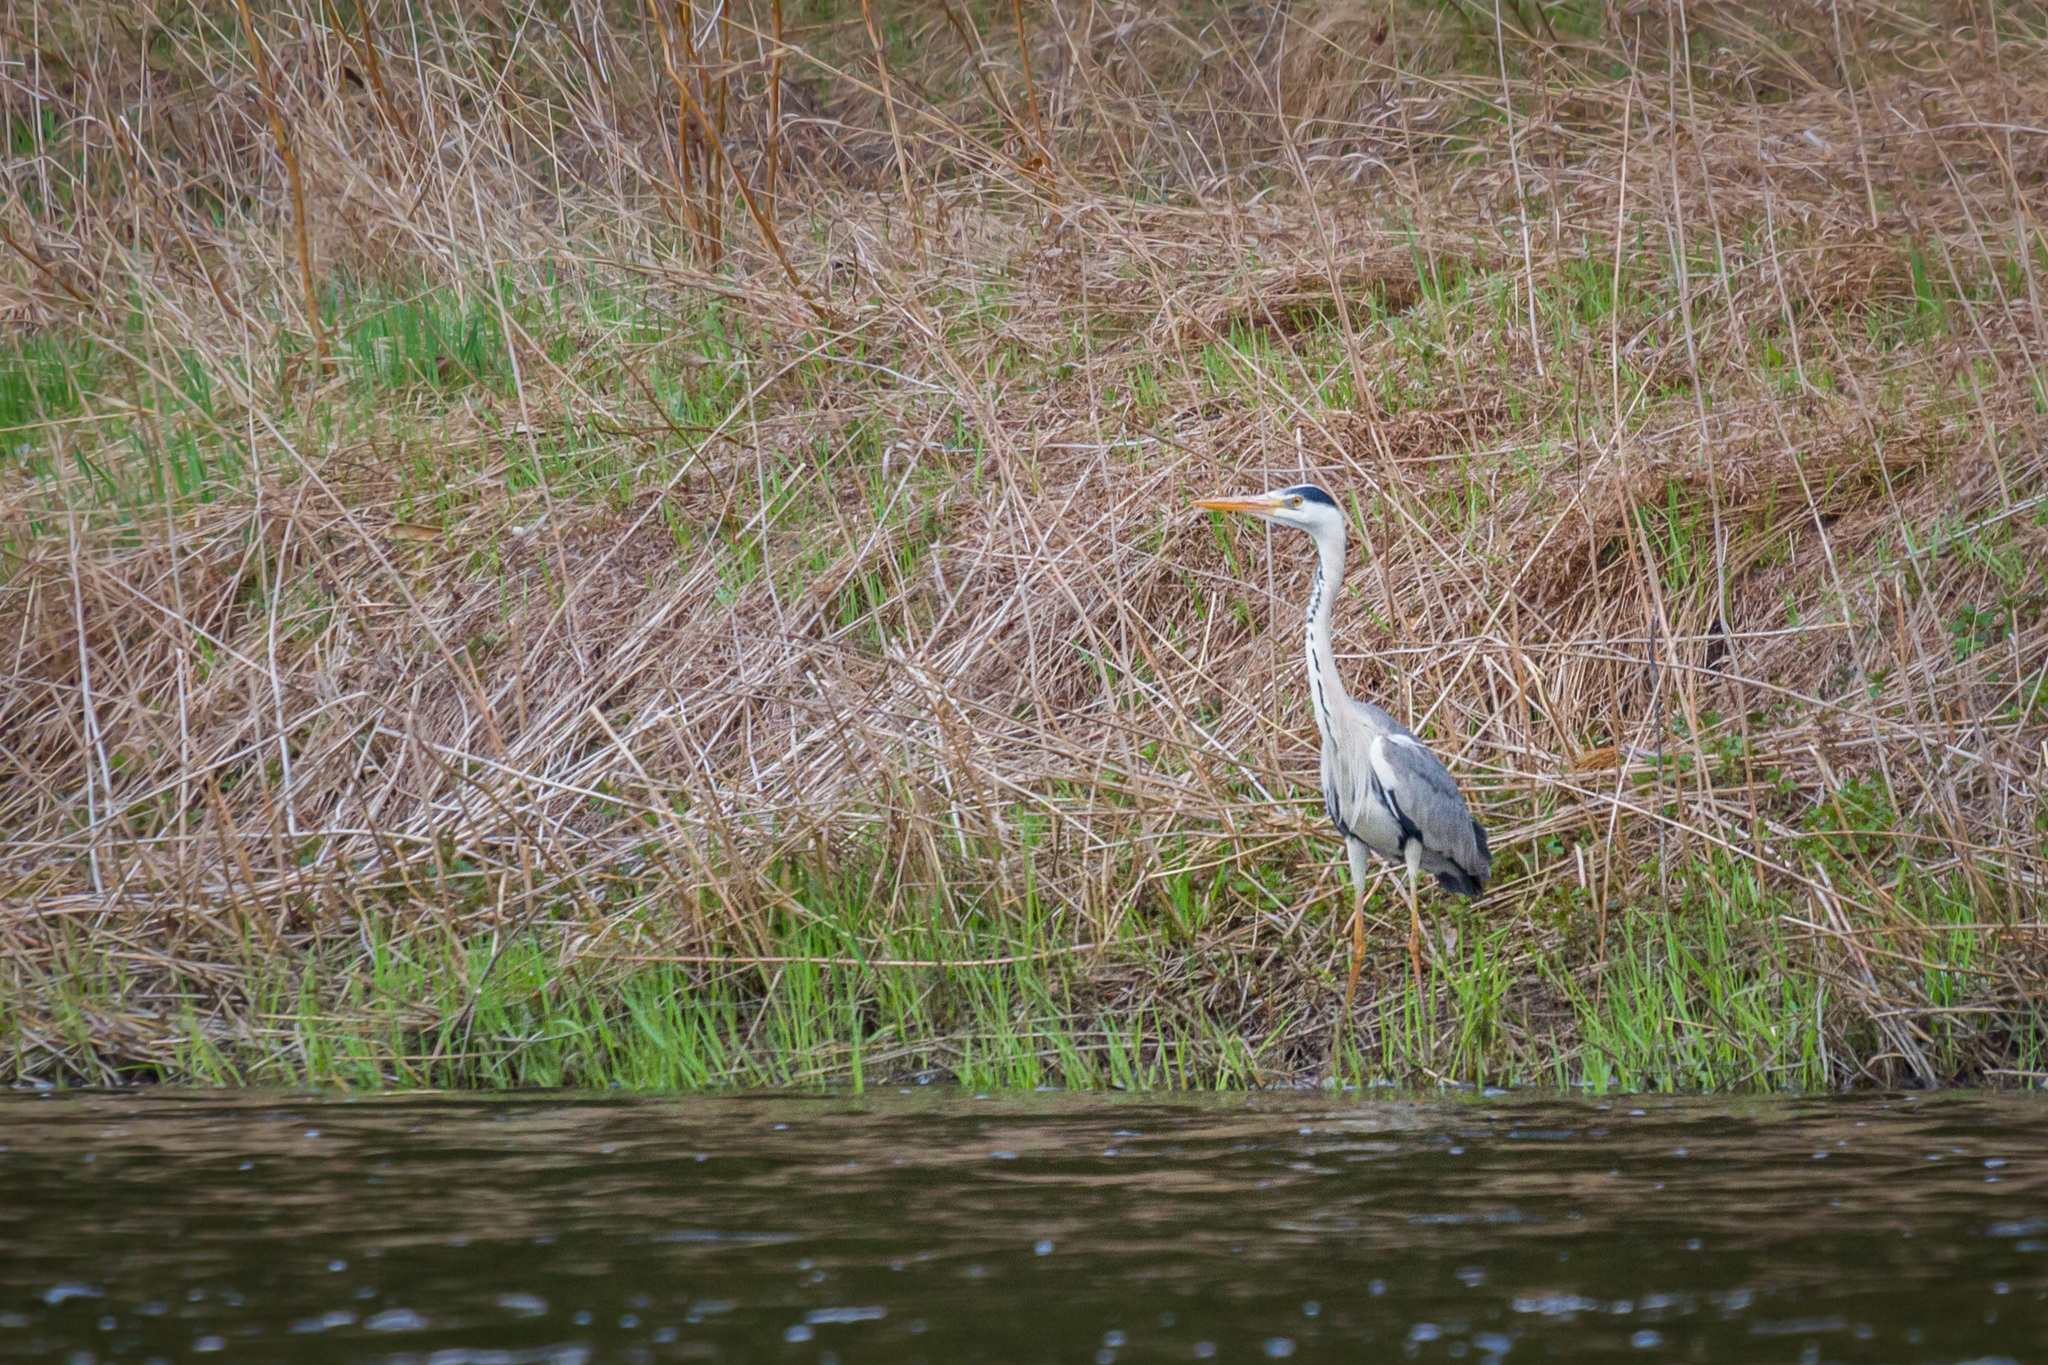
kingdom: Animalia
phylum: Chordata
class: Aves
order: Pelecaniformes
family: Ardeidae
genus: Ardea
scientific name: Ardea cinerea
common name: Grey heron
